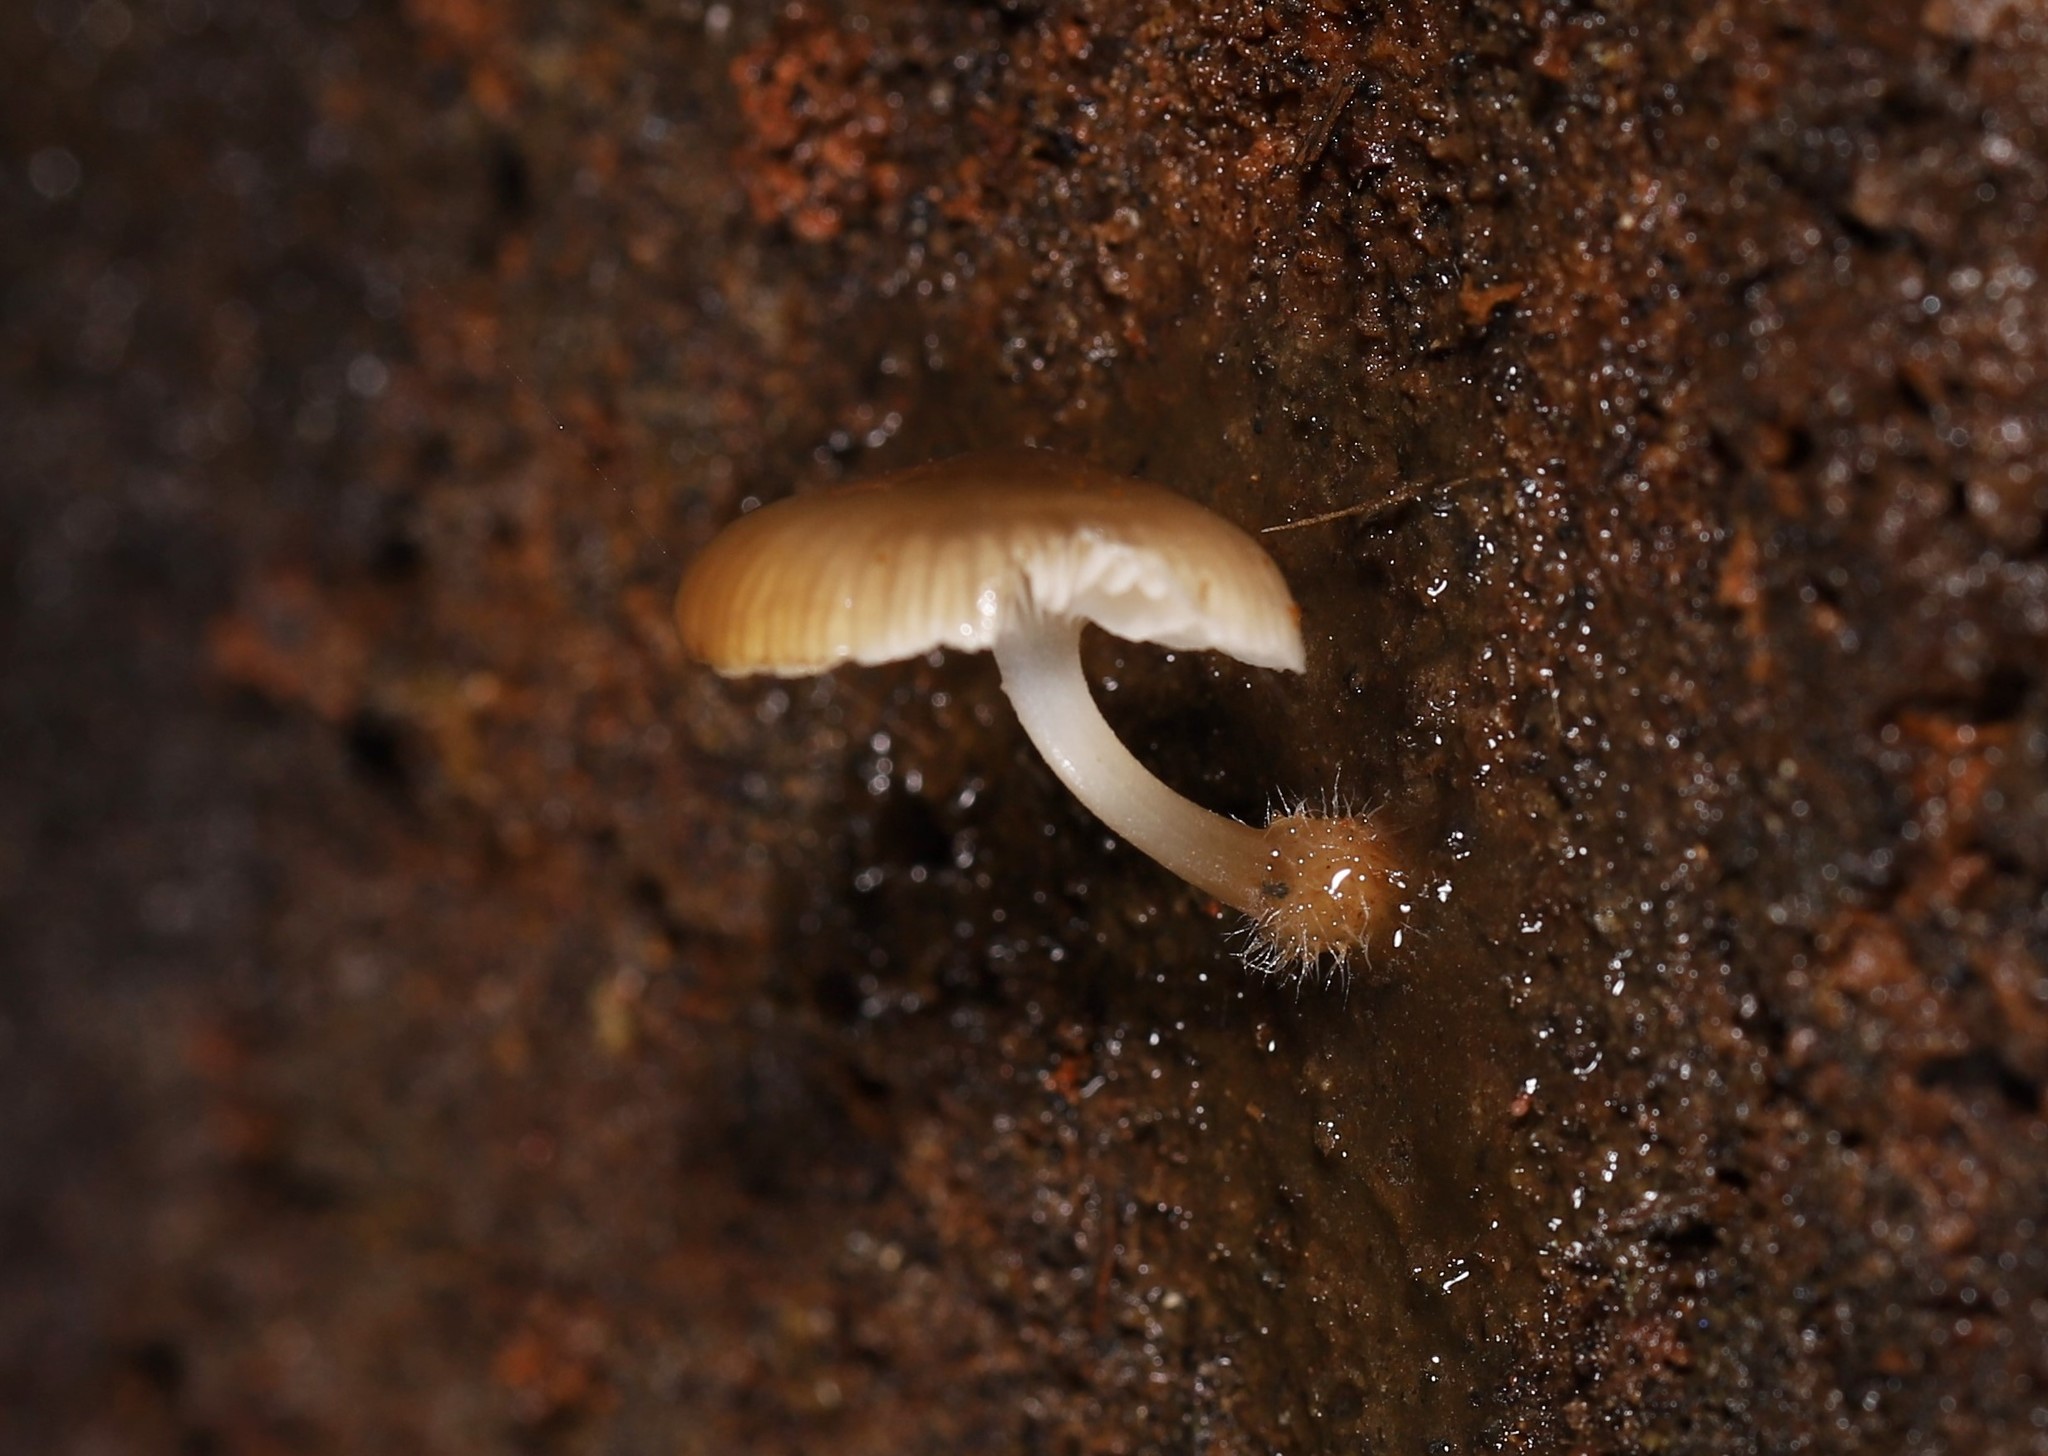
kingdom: Fungi
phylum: Basidiomycota
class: Agaricomycetes
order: Agaricales
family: Mycenaceae
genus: Mycena
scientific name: Mycena carmeliana
